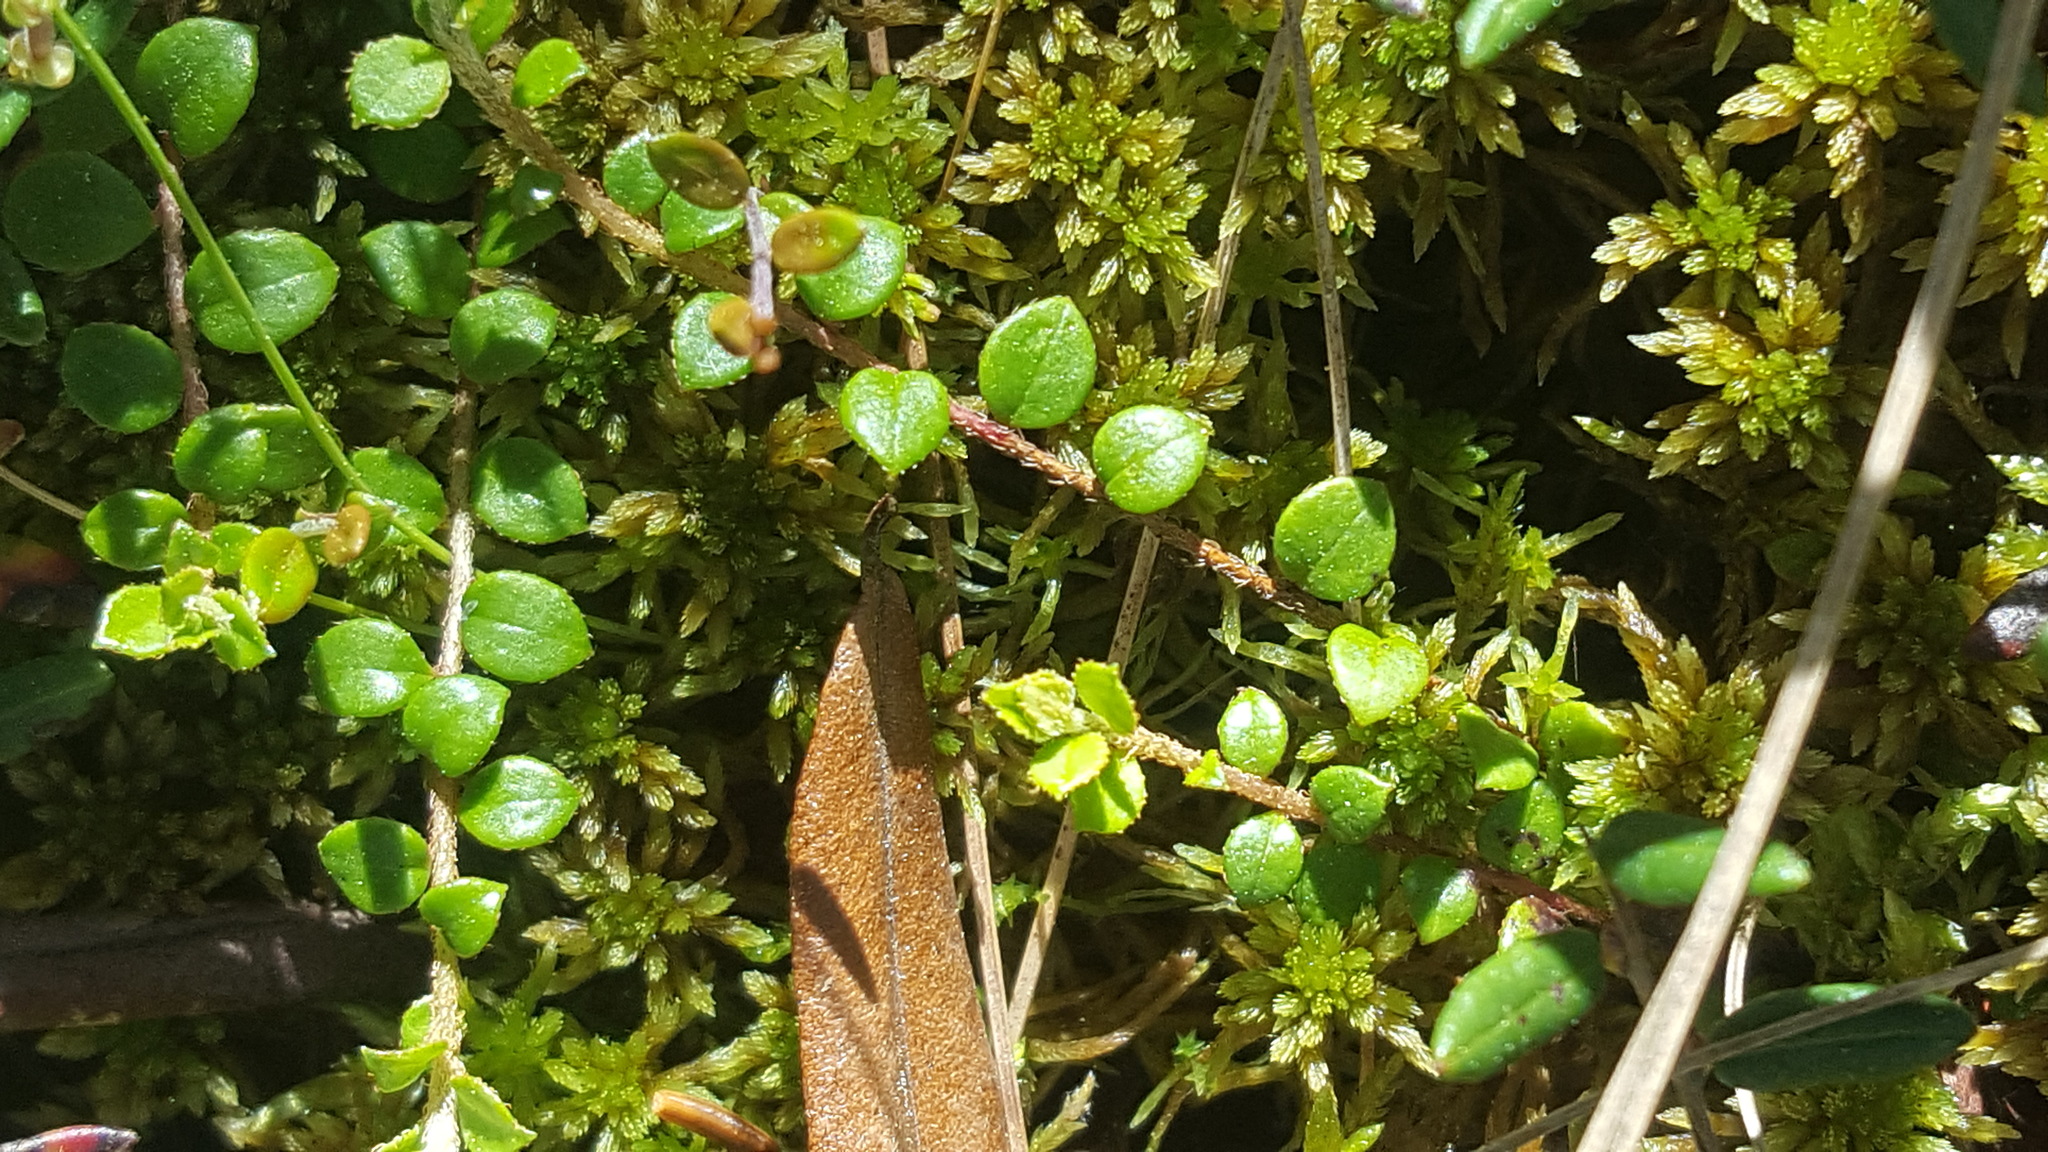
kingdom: Plantae
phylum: Tracheophyta
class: Magnoliopsida
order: Ericales
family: Ericaceae
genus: Gaultheria
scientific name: Gaultheria hispidula
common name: Cancer wintergreen
